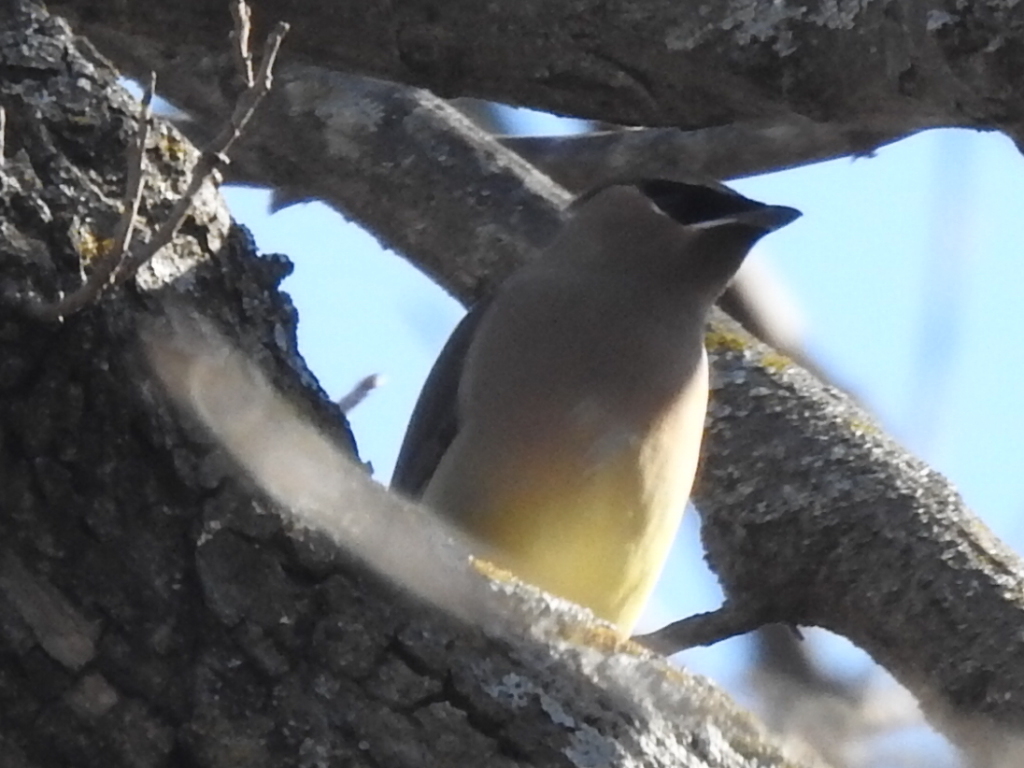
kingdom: Animalia
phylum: Chordata
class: Aves
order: Passeriformes
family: Bombycillidae
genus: Bombycilla
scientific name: Bombycilla cedrorum
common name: Cedar waxwing
